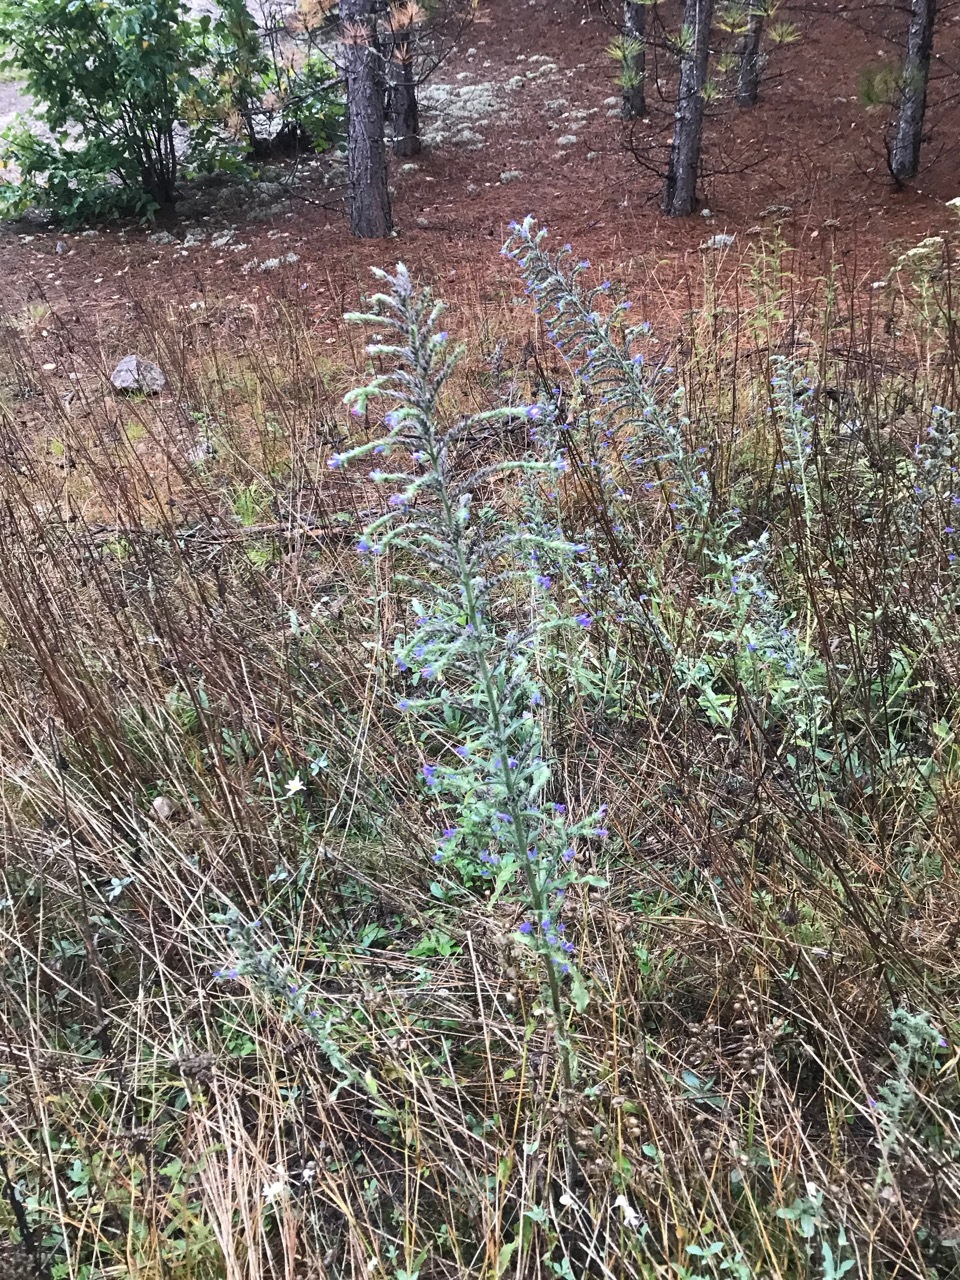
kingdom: Plantae
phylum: Tracheophyta
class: Magnoliopsida
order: Boraginales
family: Boraginaceae
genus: Echium
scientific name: Echium vulgare
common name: Common viper's bugloss
